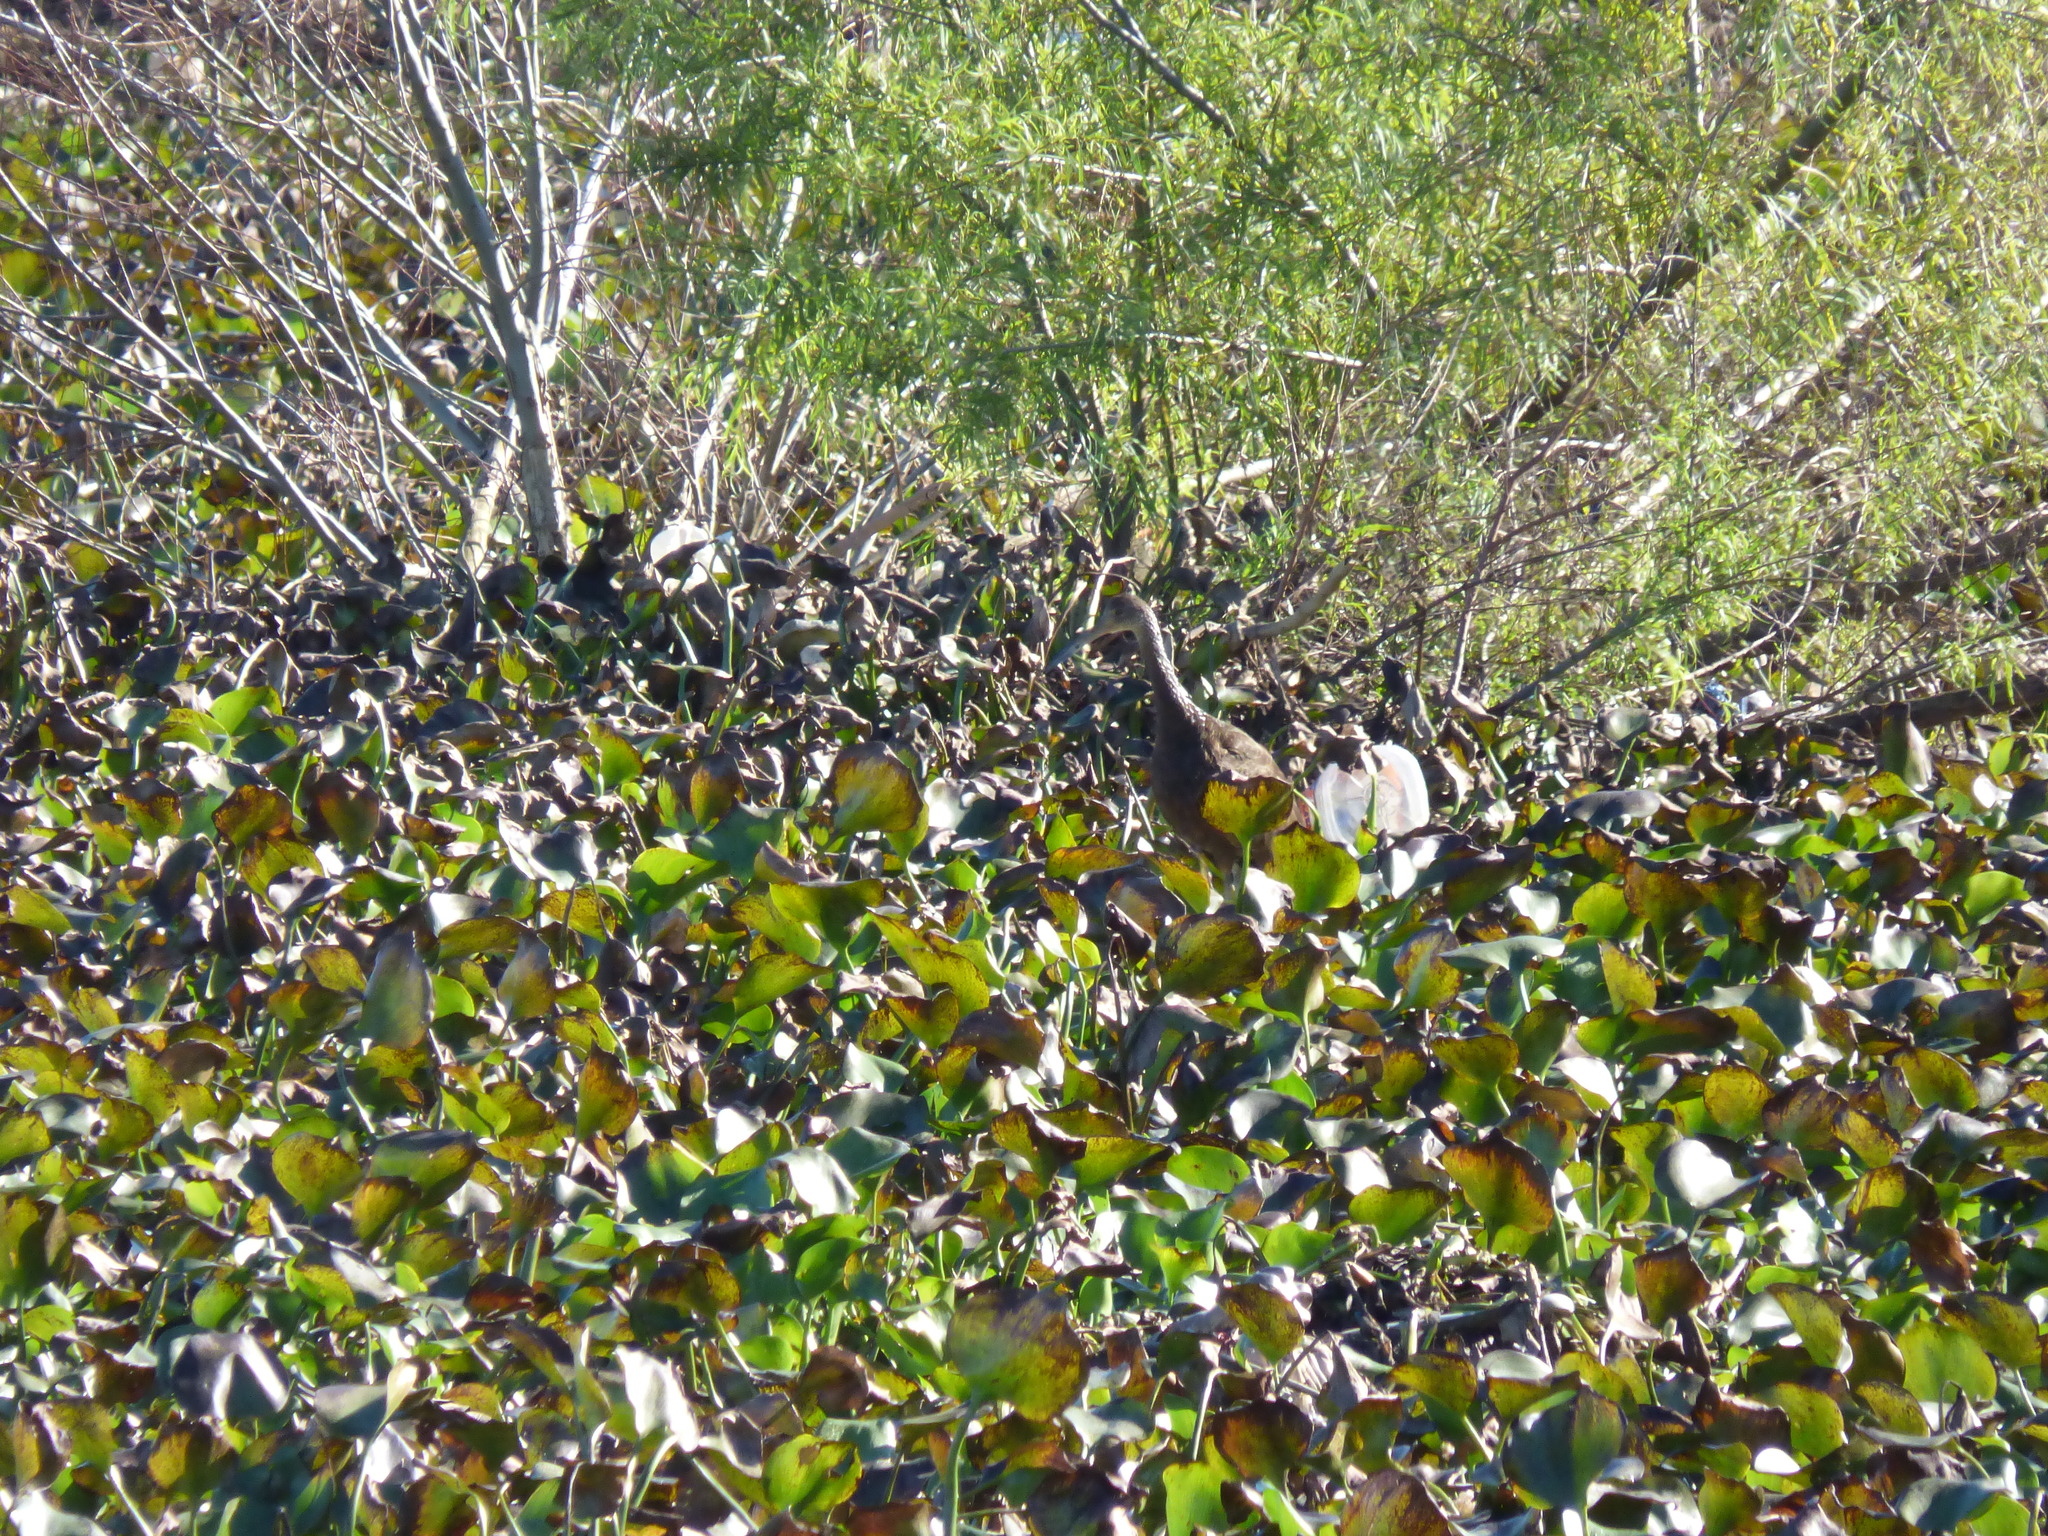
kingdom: Animalia
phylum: Chordata
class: Aves
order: Gruiformes
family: Aramidae
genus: Aramus
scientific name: Aramus guarauna
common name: Limpkin
